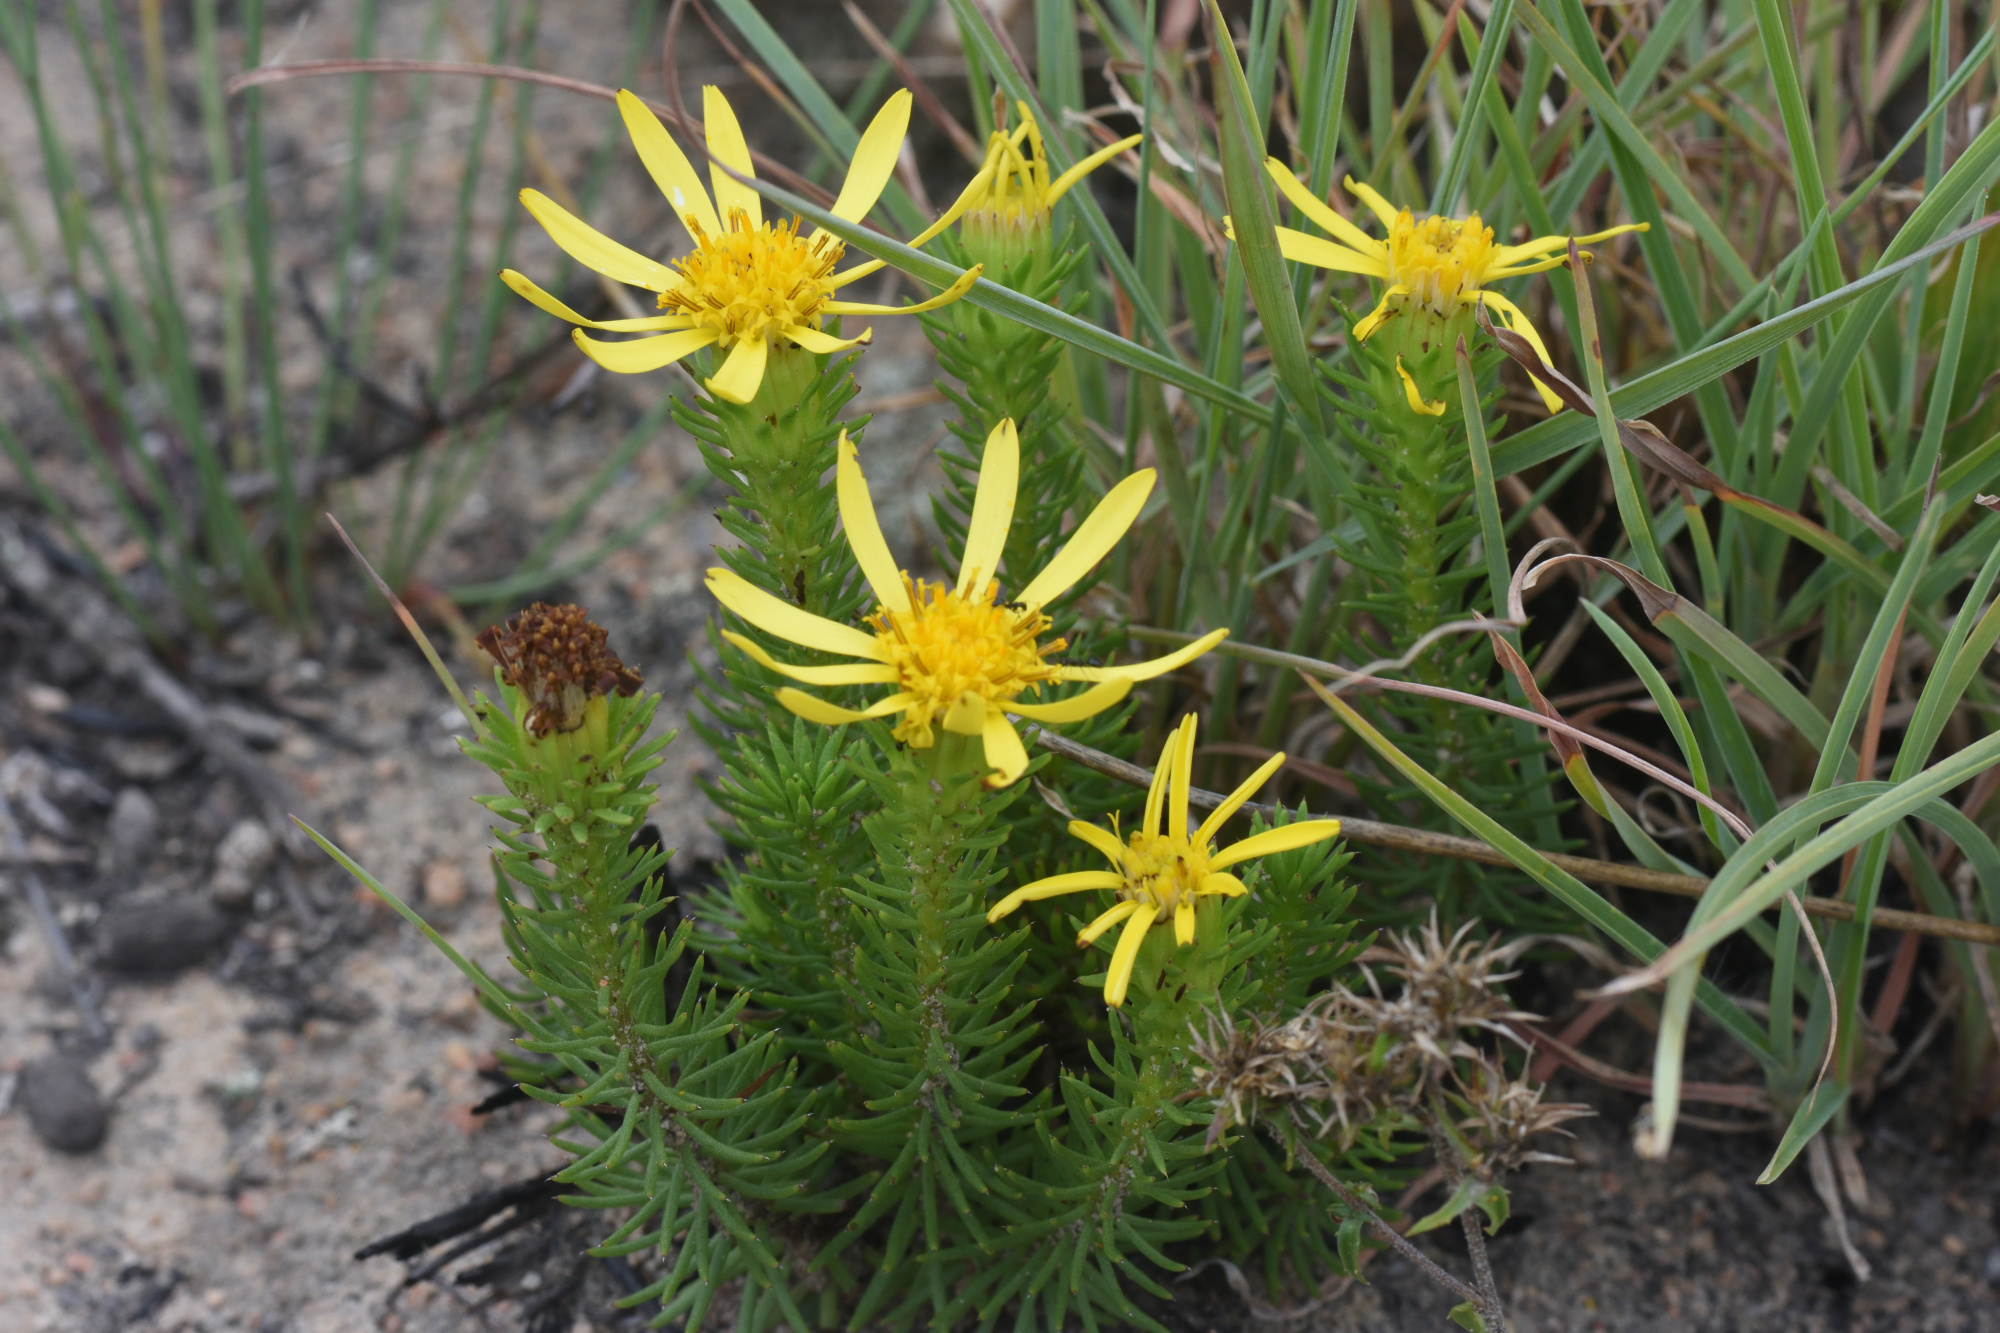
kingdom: Plantae
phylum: Tracheophyta
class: Magnoliopsida
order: Asterales
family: Asteraceae
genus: Senecio
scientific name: Senecio pinifolius
